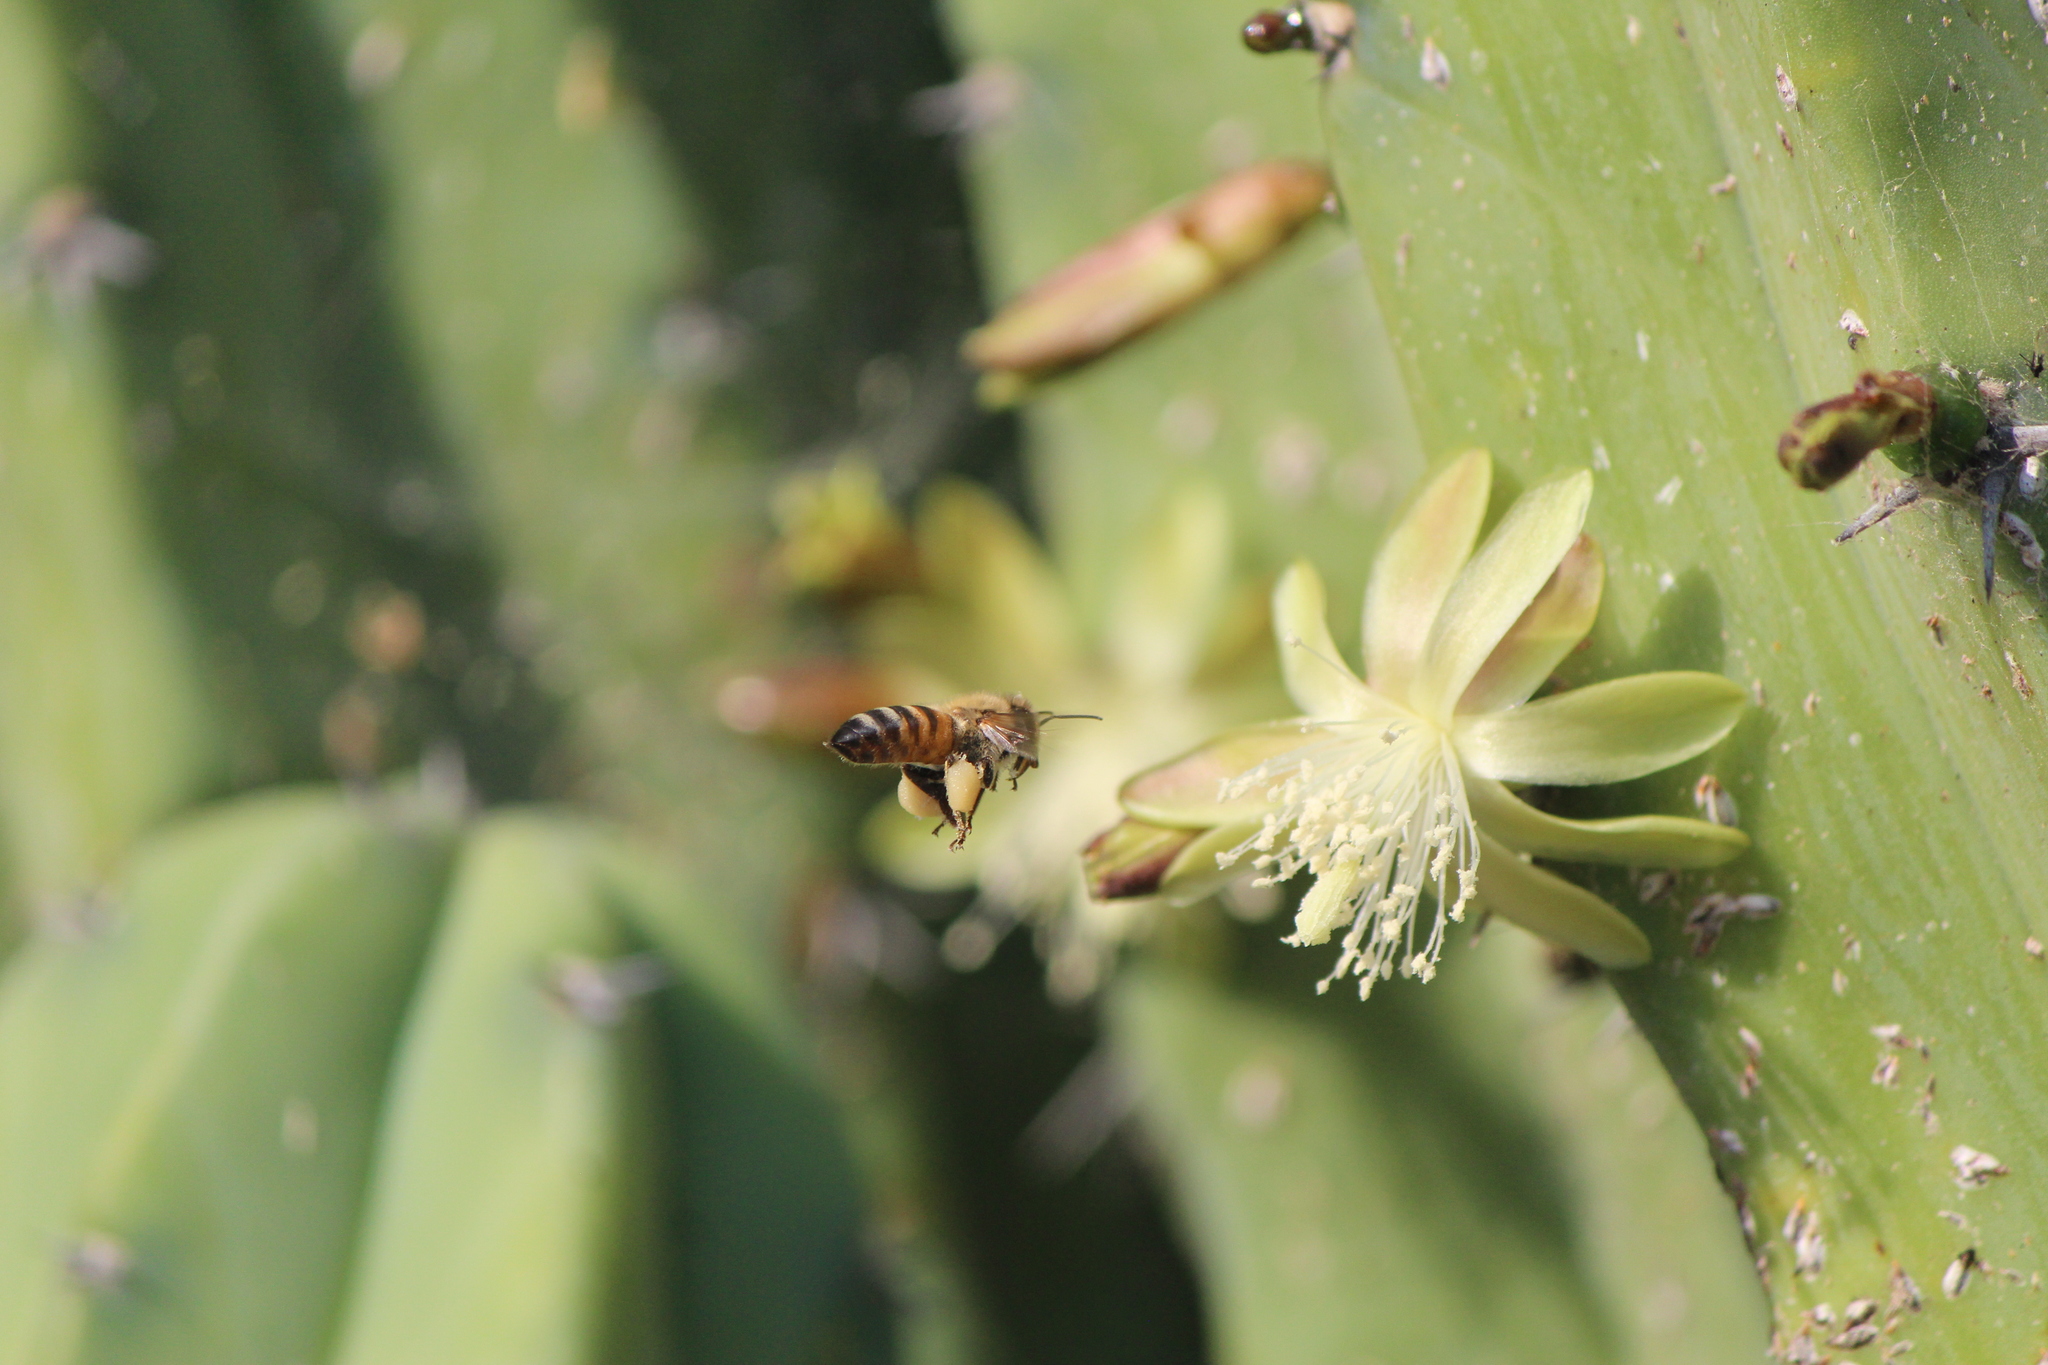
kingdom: Animalia
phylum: Arthropoda
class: Insecta
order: Hymenoptera
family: Apidae
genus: Apis
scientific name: Apis mellifera
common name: Honey bee
